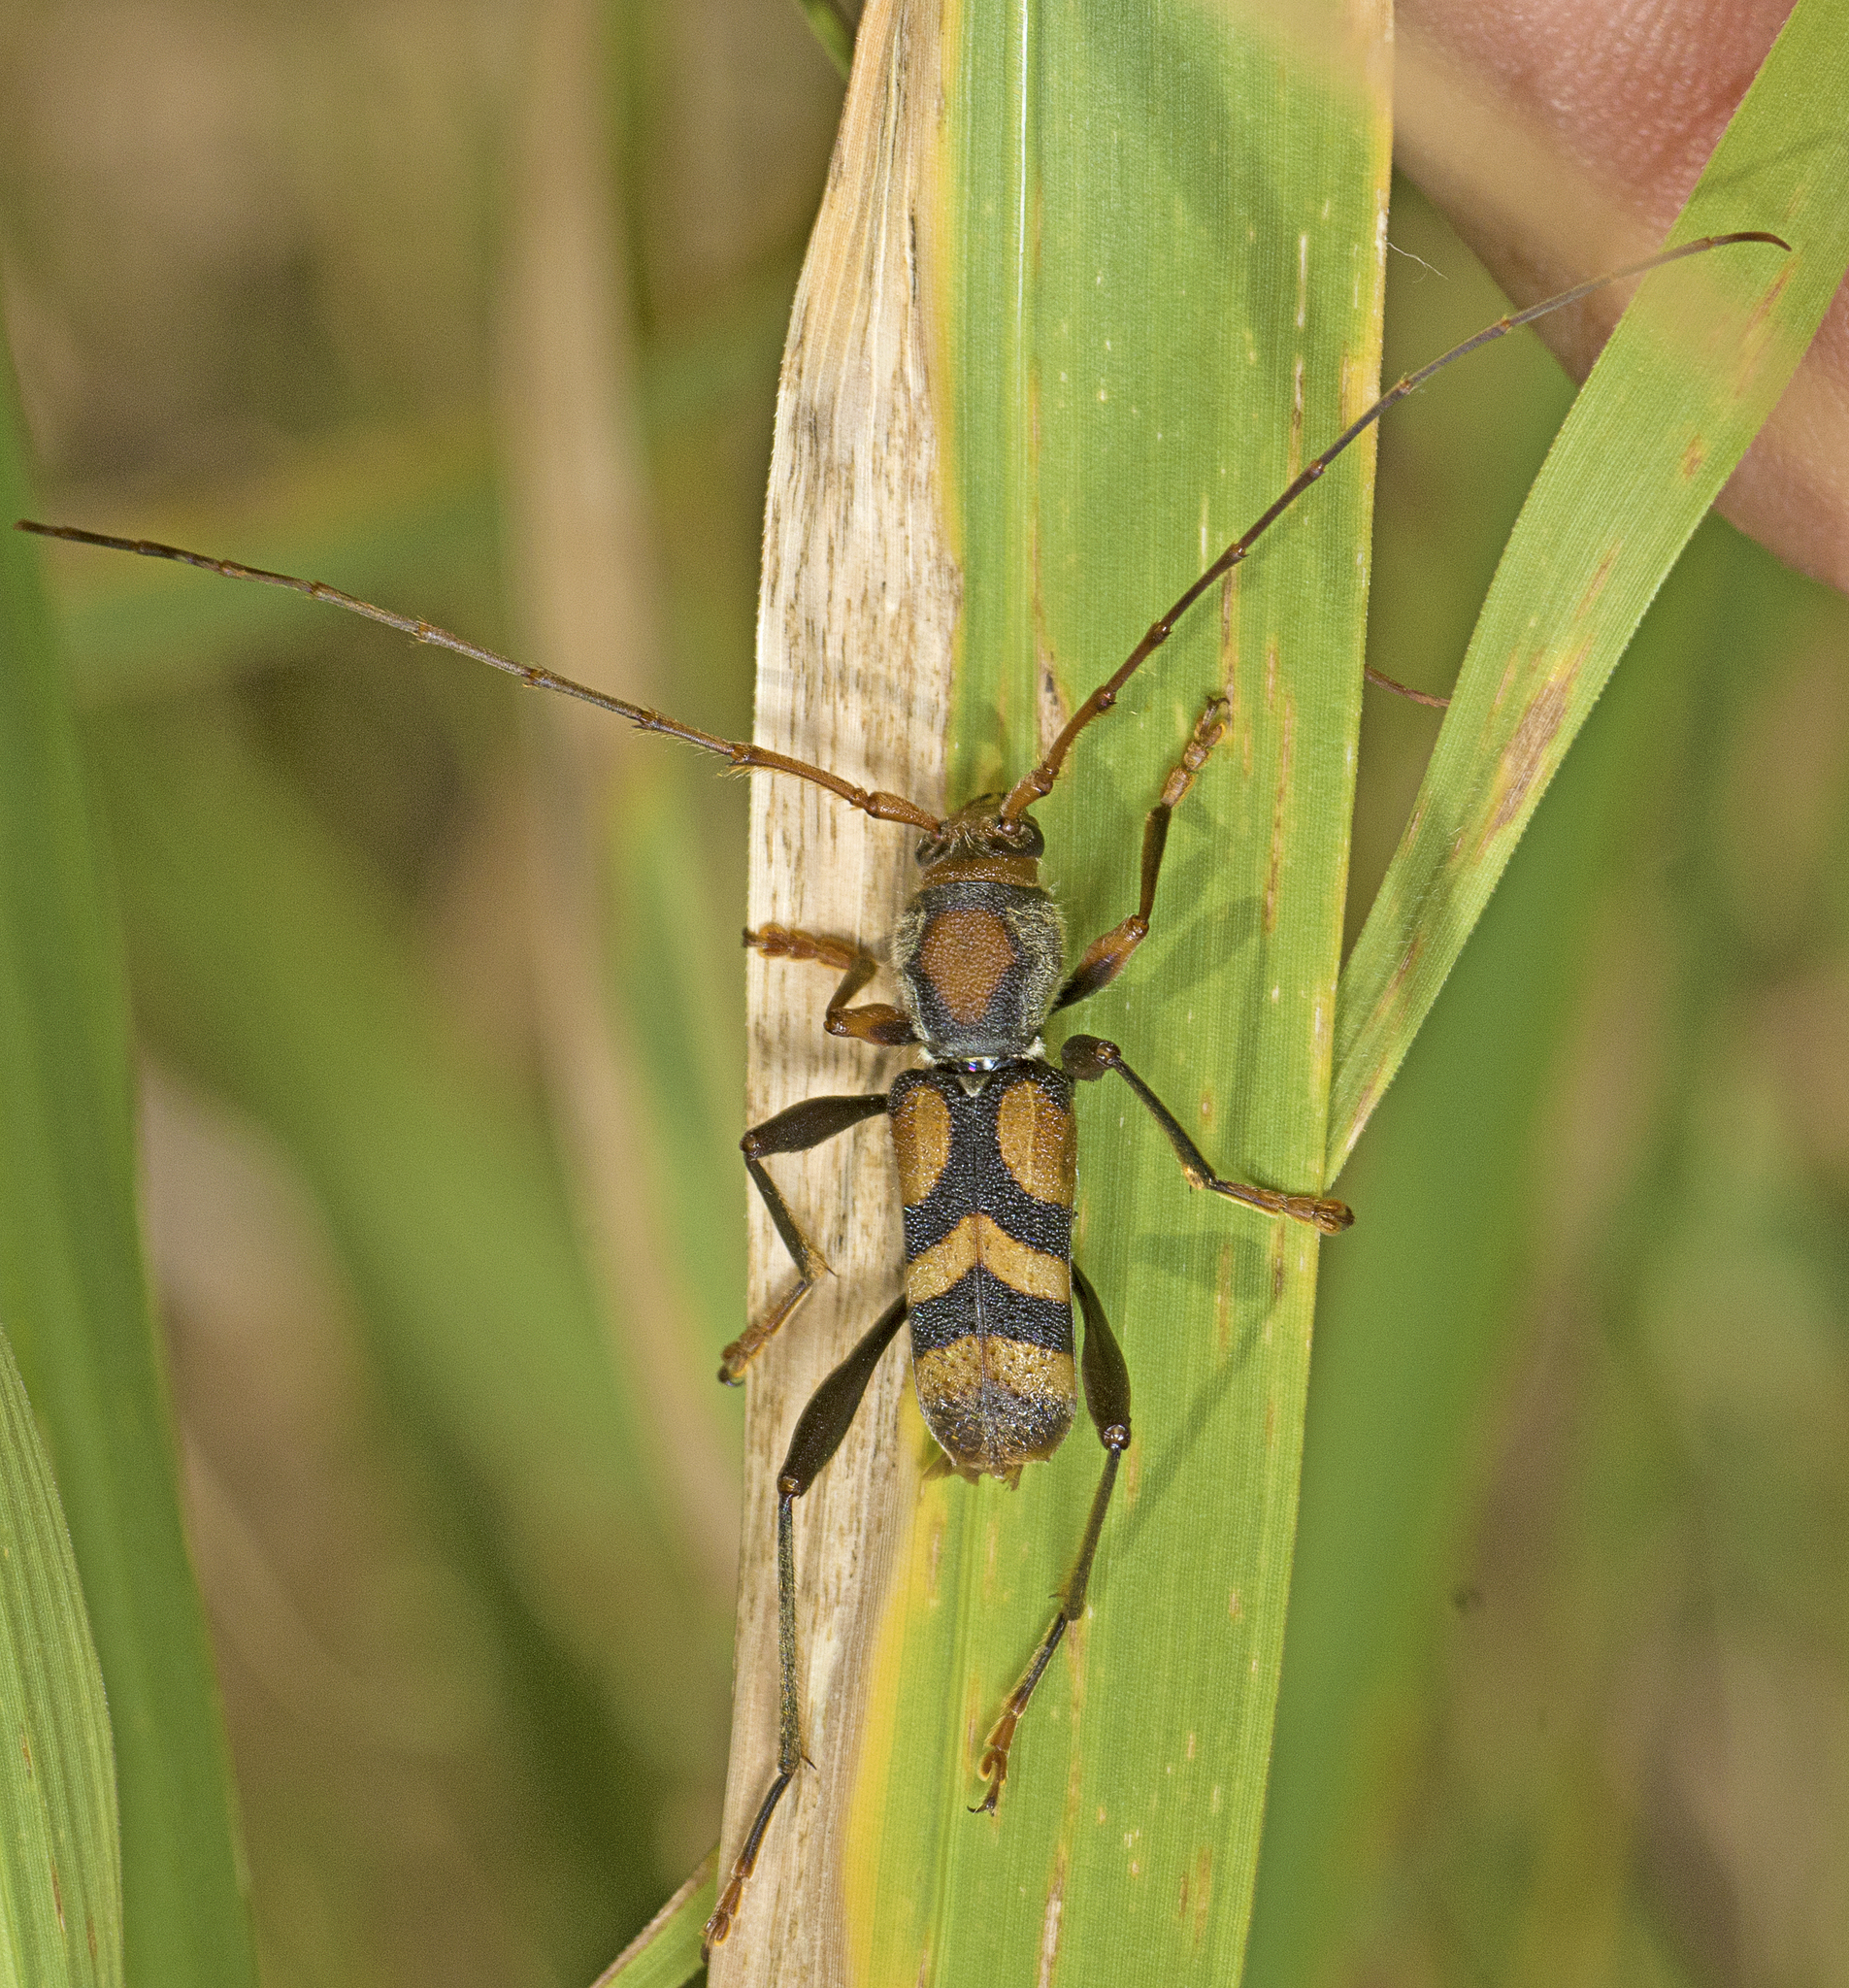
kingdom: Animalia
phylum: Arthropoda
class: Insecta
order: Coleoptera
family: Cerambycidae
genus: Aridaeus
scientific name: Aridaeus thoracicus
